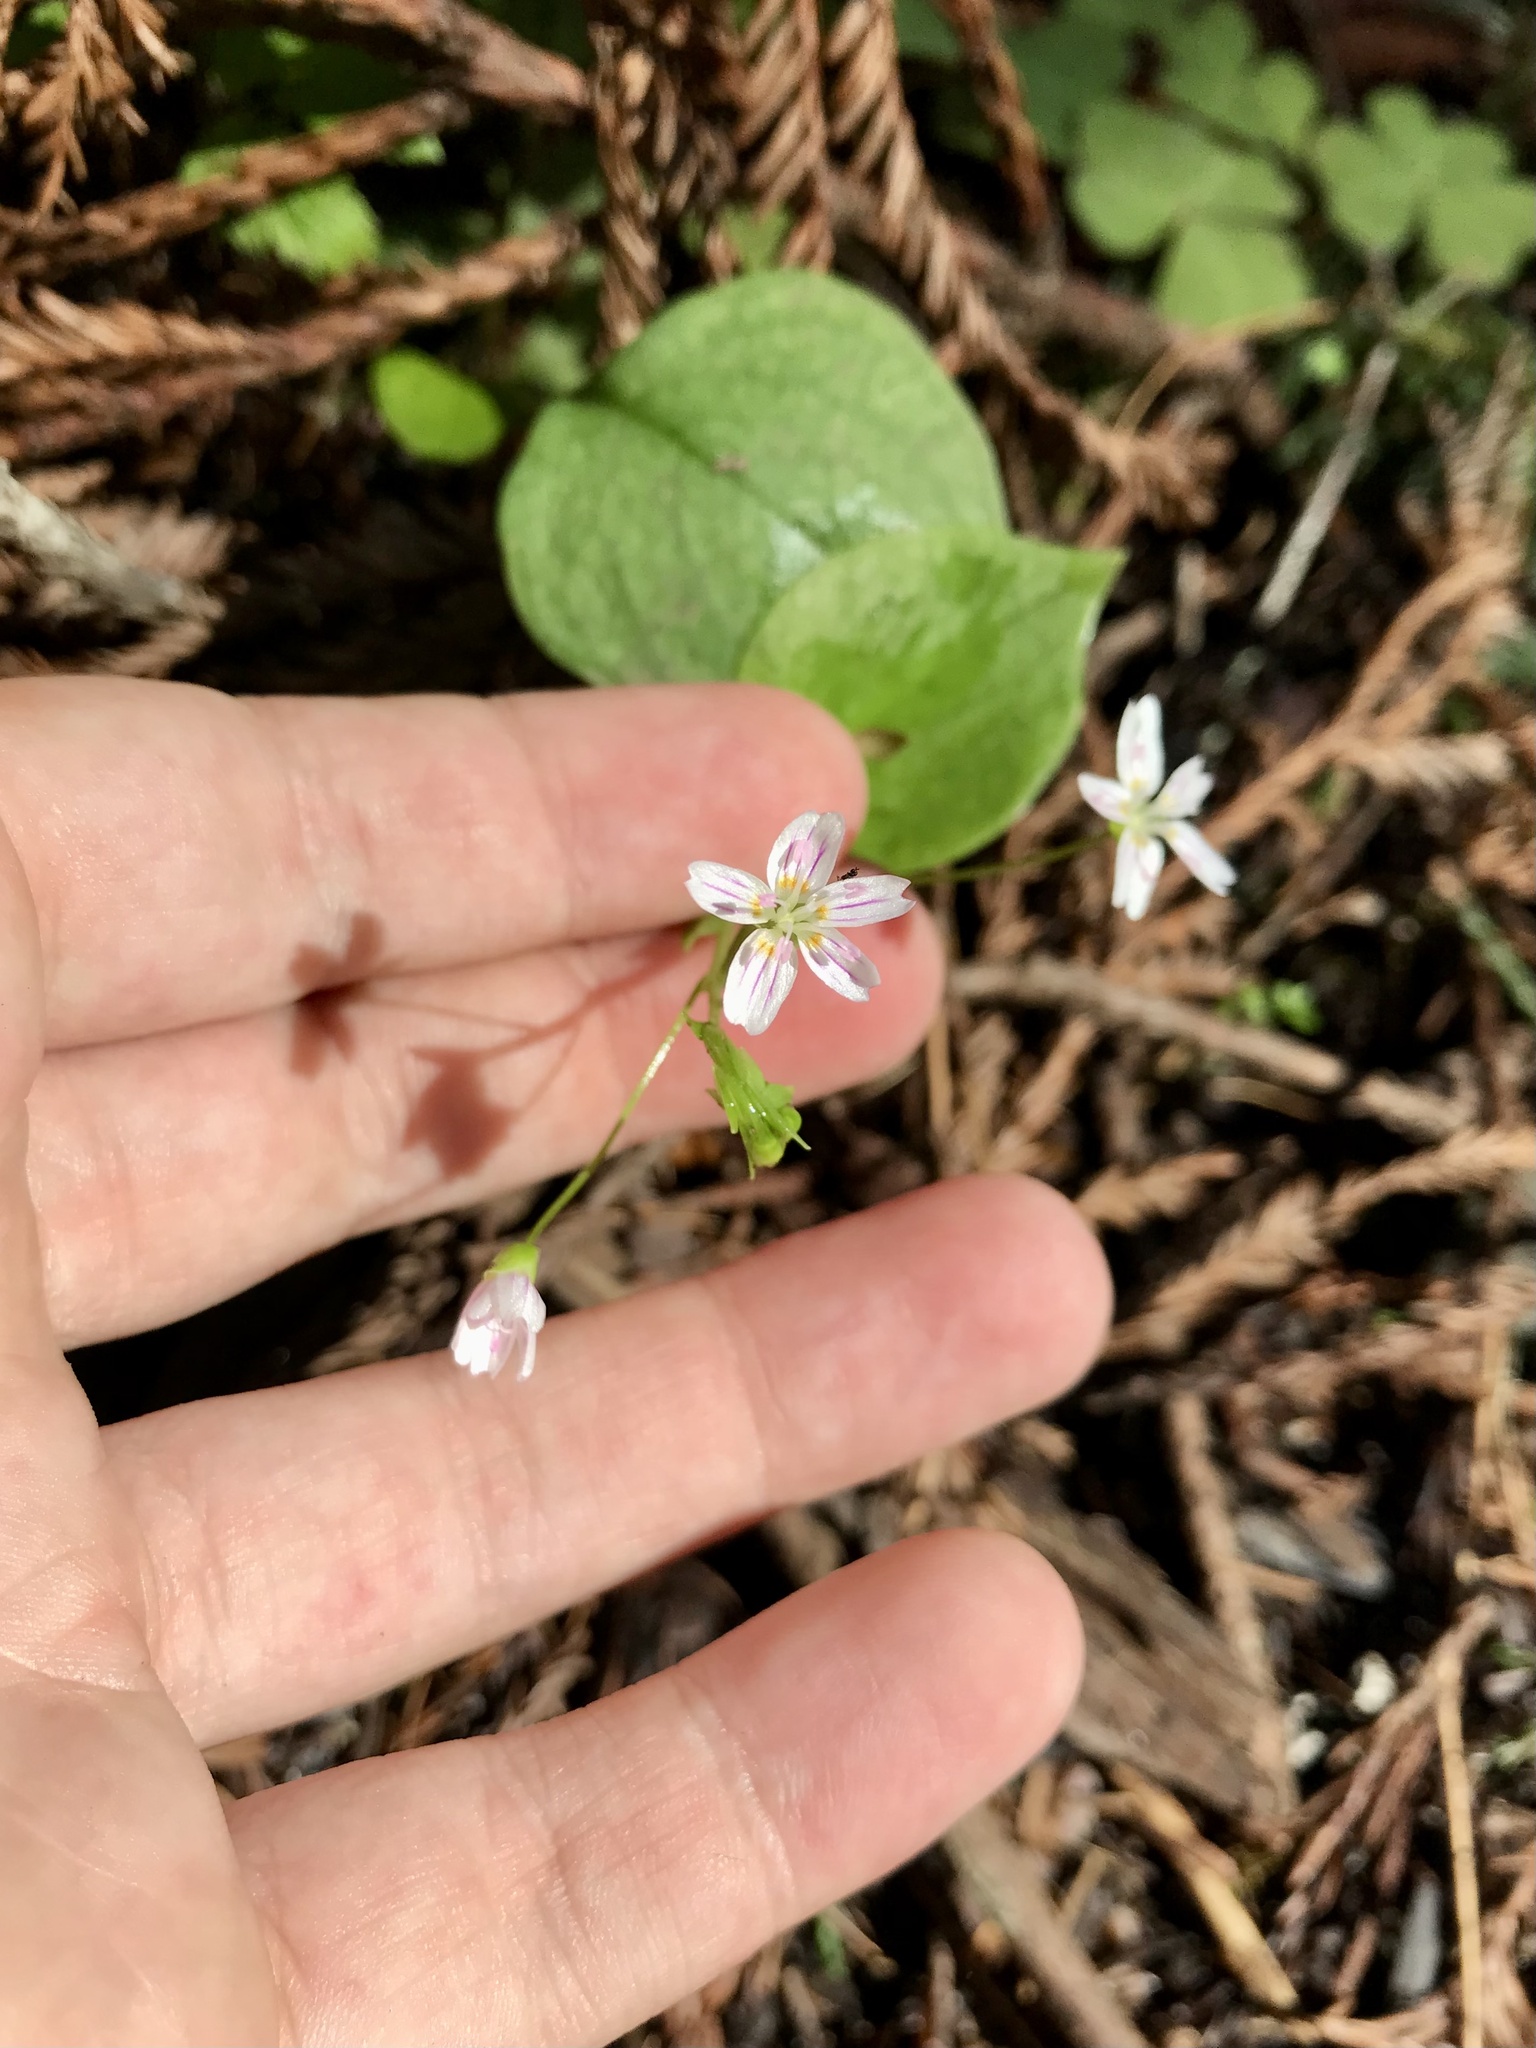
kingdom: Plantae
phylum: Tracheophyta
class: Magnoliopsida
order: Caryophyllales
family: Montiaceae
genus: Claytonia
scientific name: Claytonia sibirica
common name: Pink purslane
